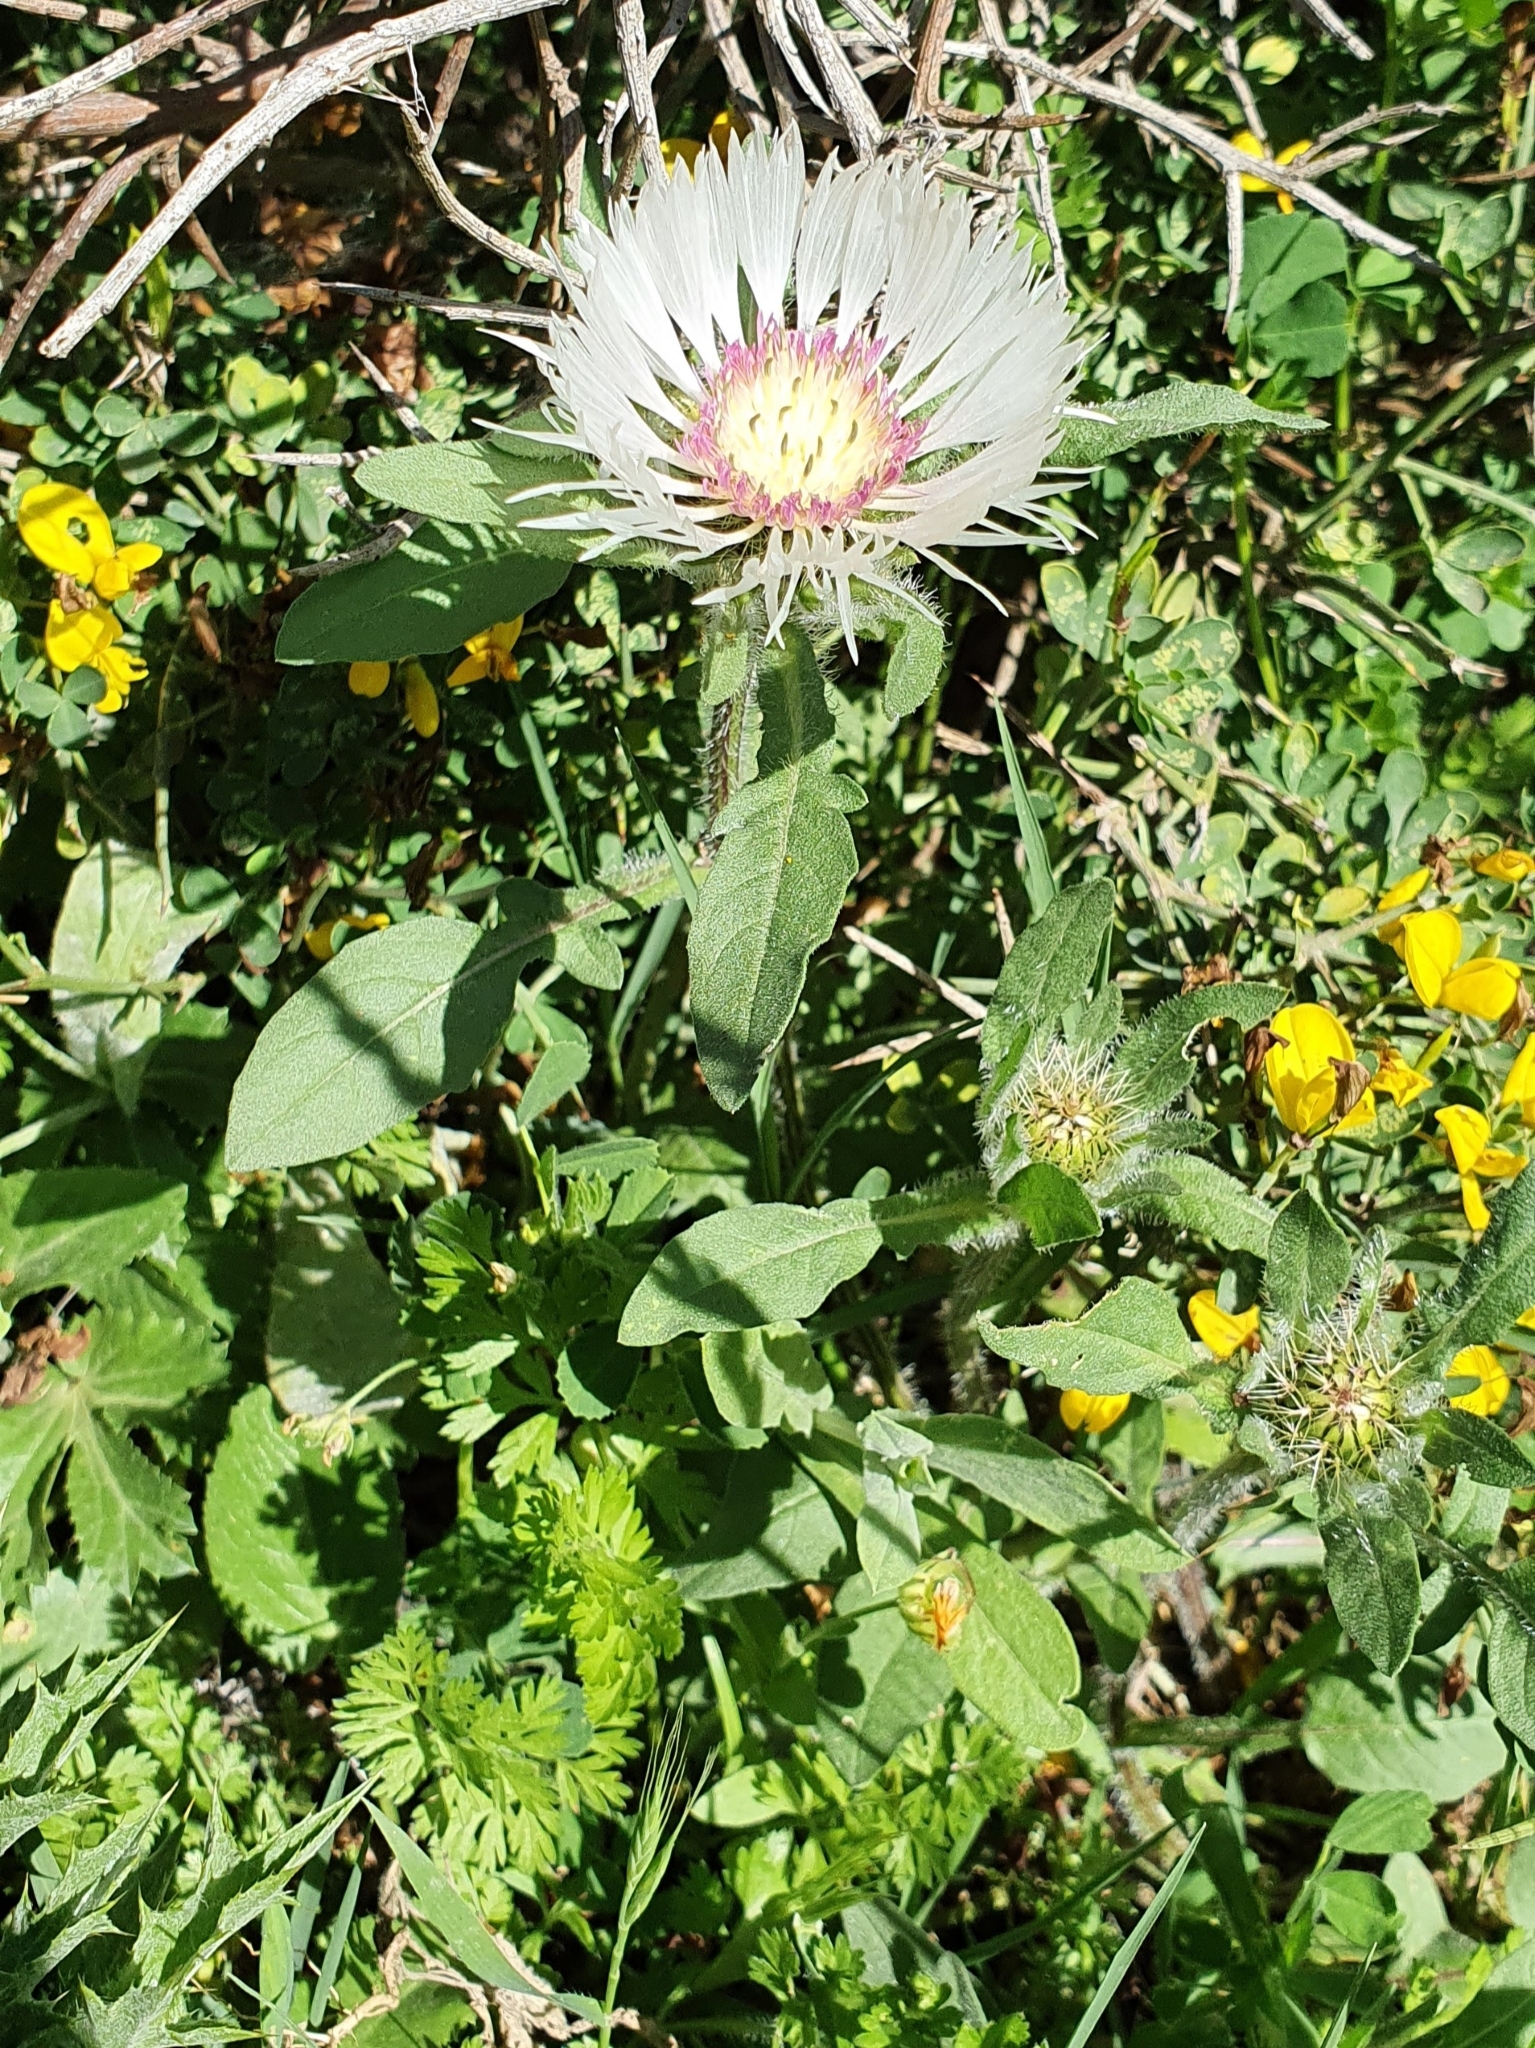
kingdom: Plantae
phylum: Tracheophyta
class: Magnoliopsida
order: Asterales
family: Asteraceae
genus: Centaurea
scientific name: Centaurea pullata
